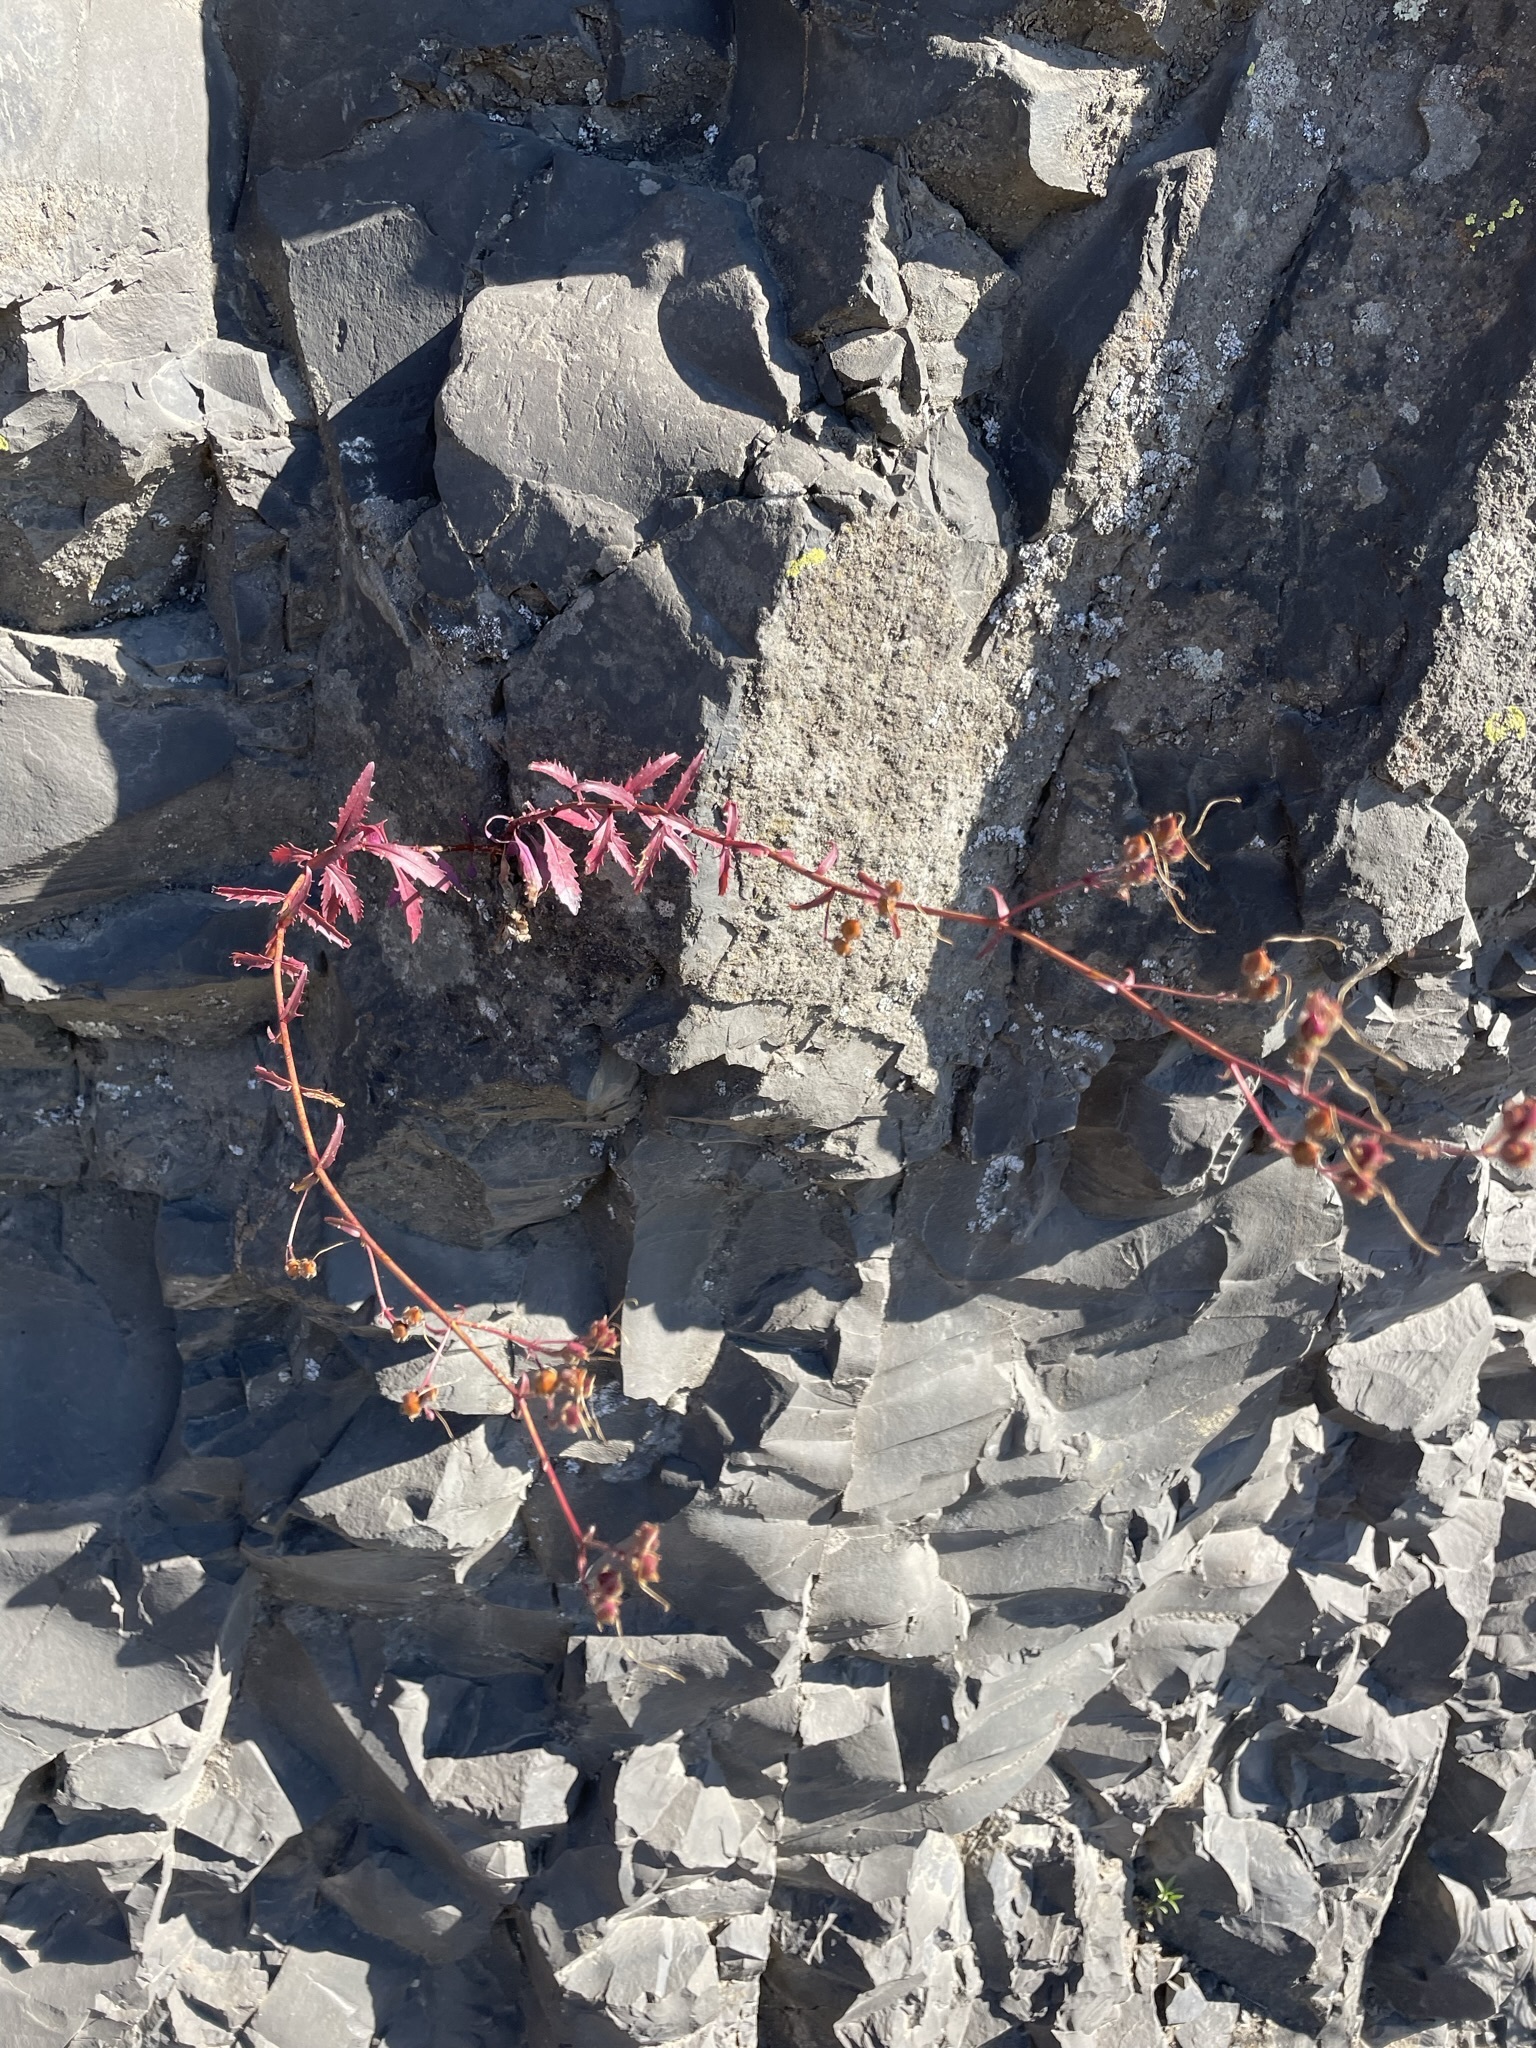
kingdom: Plantae
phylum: Tracheophyta
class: Magnoliopsida
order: Lamiales
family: Plantaginaceae
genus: Penstemon
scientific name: Penstemon richardsonii
